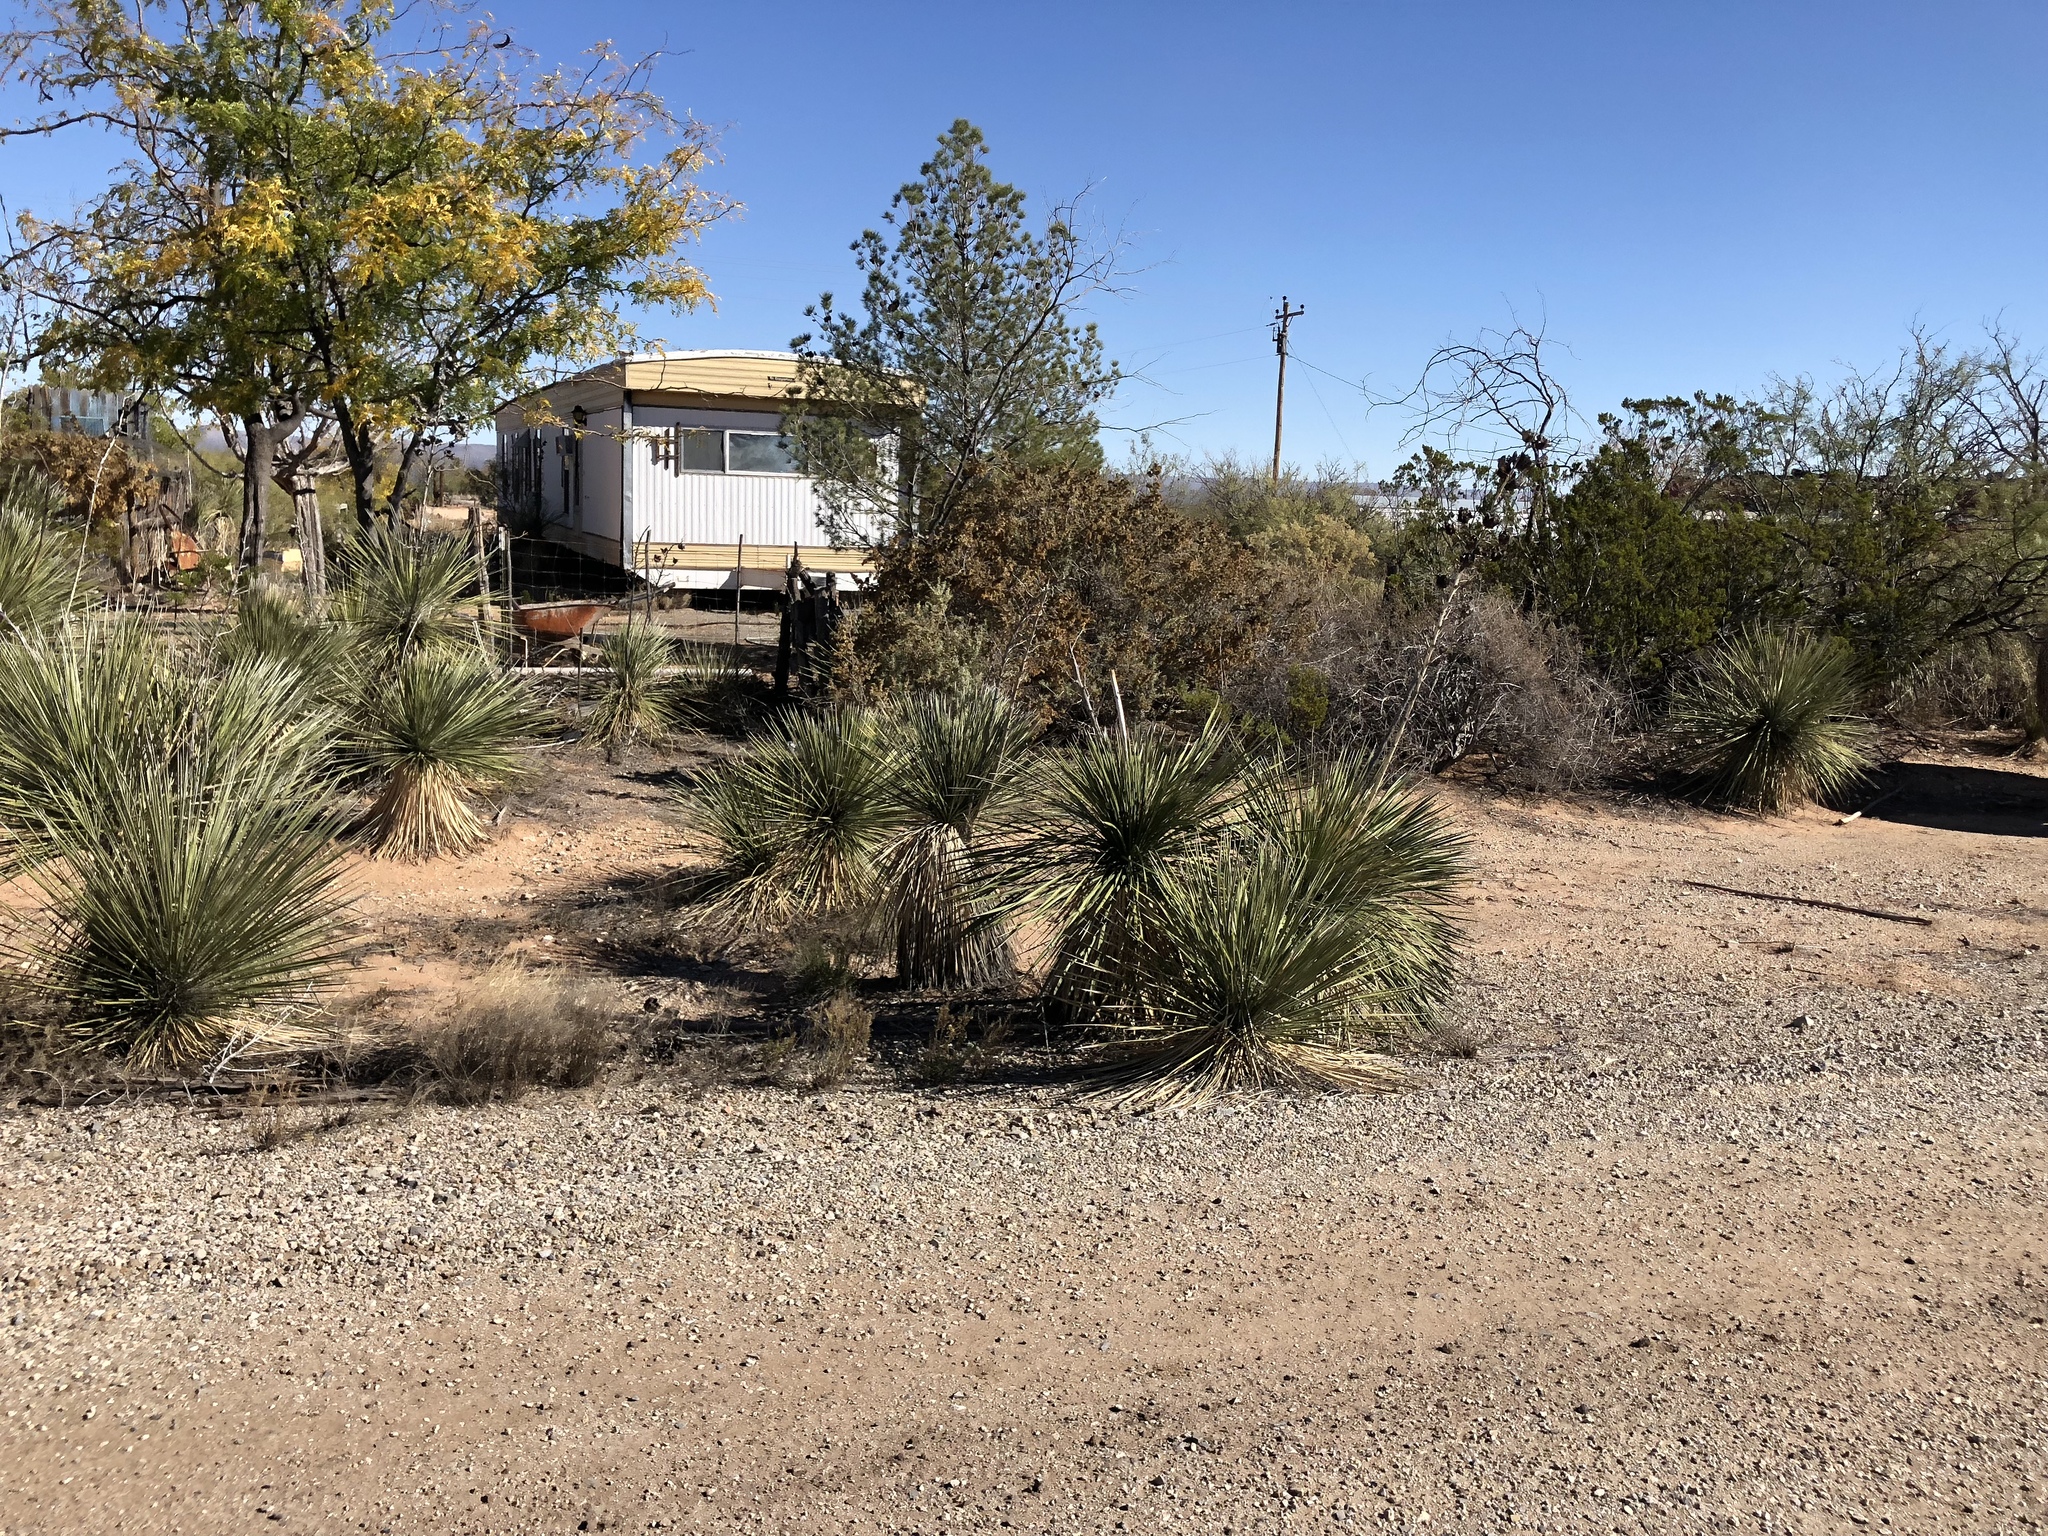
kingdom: Plantae
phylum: Tracheophyta
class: Liliopsida
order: Asparagales
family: Asparagaceae
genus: Yucca
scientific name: Yucca elata
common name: Palmella
